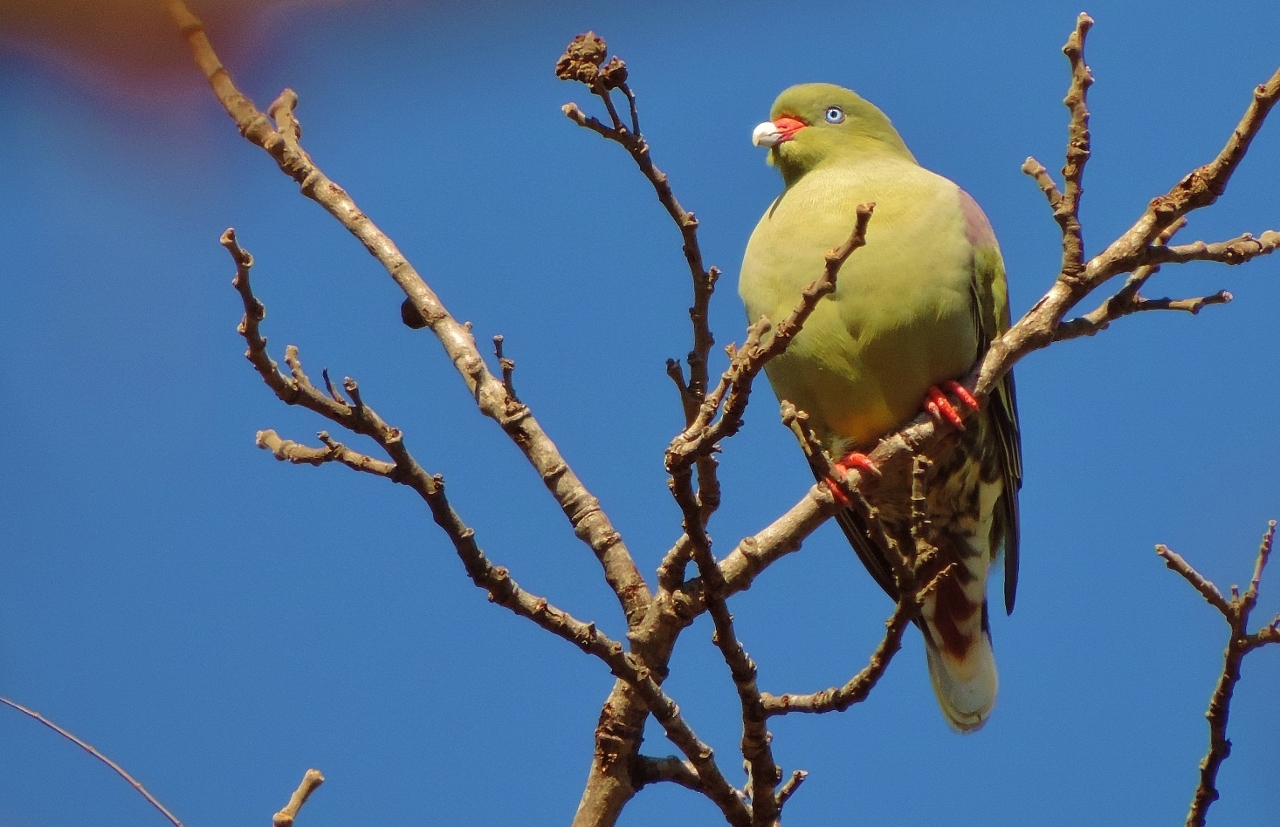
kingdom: Animalia
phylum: Chordata
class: Aves
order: Columbiformes
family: Columbidae
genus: Treron
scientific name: Treron calvus
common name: African green pigeon
